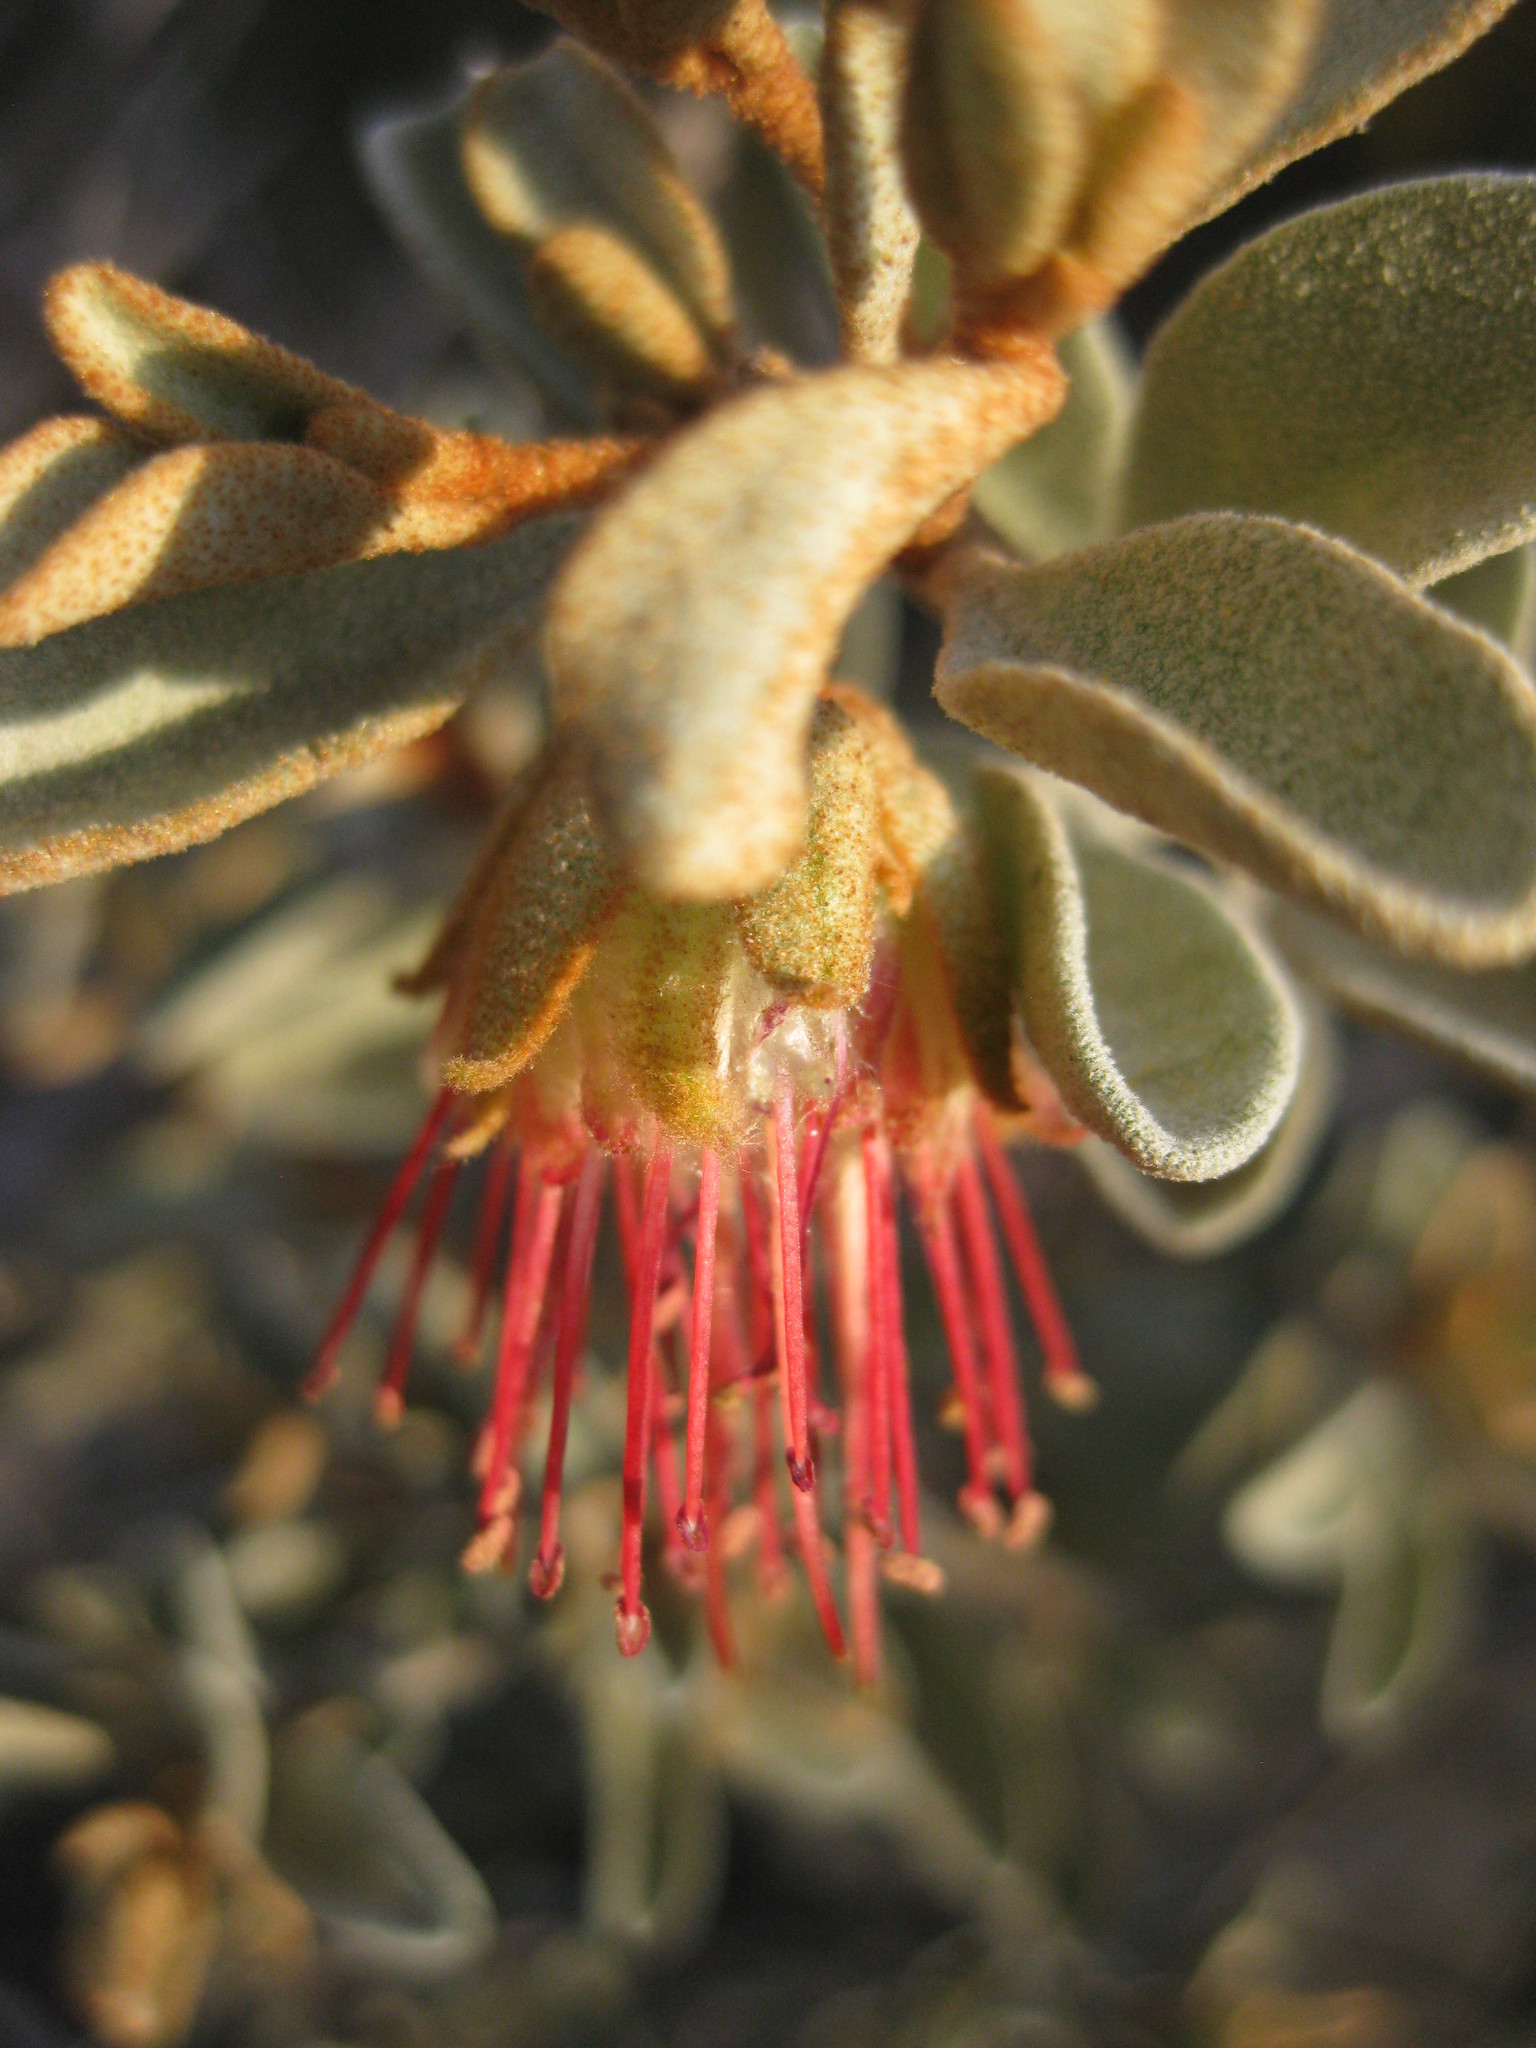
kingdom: Plantae
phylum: Tracheophyta
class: Magnoliopsida
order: Sapindales
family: Rutaceae
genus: Diplolaena
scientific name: Diplolaena mollis
